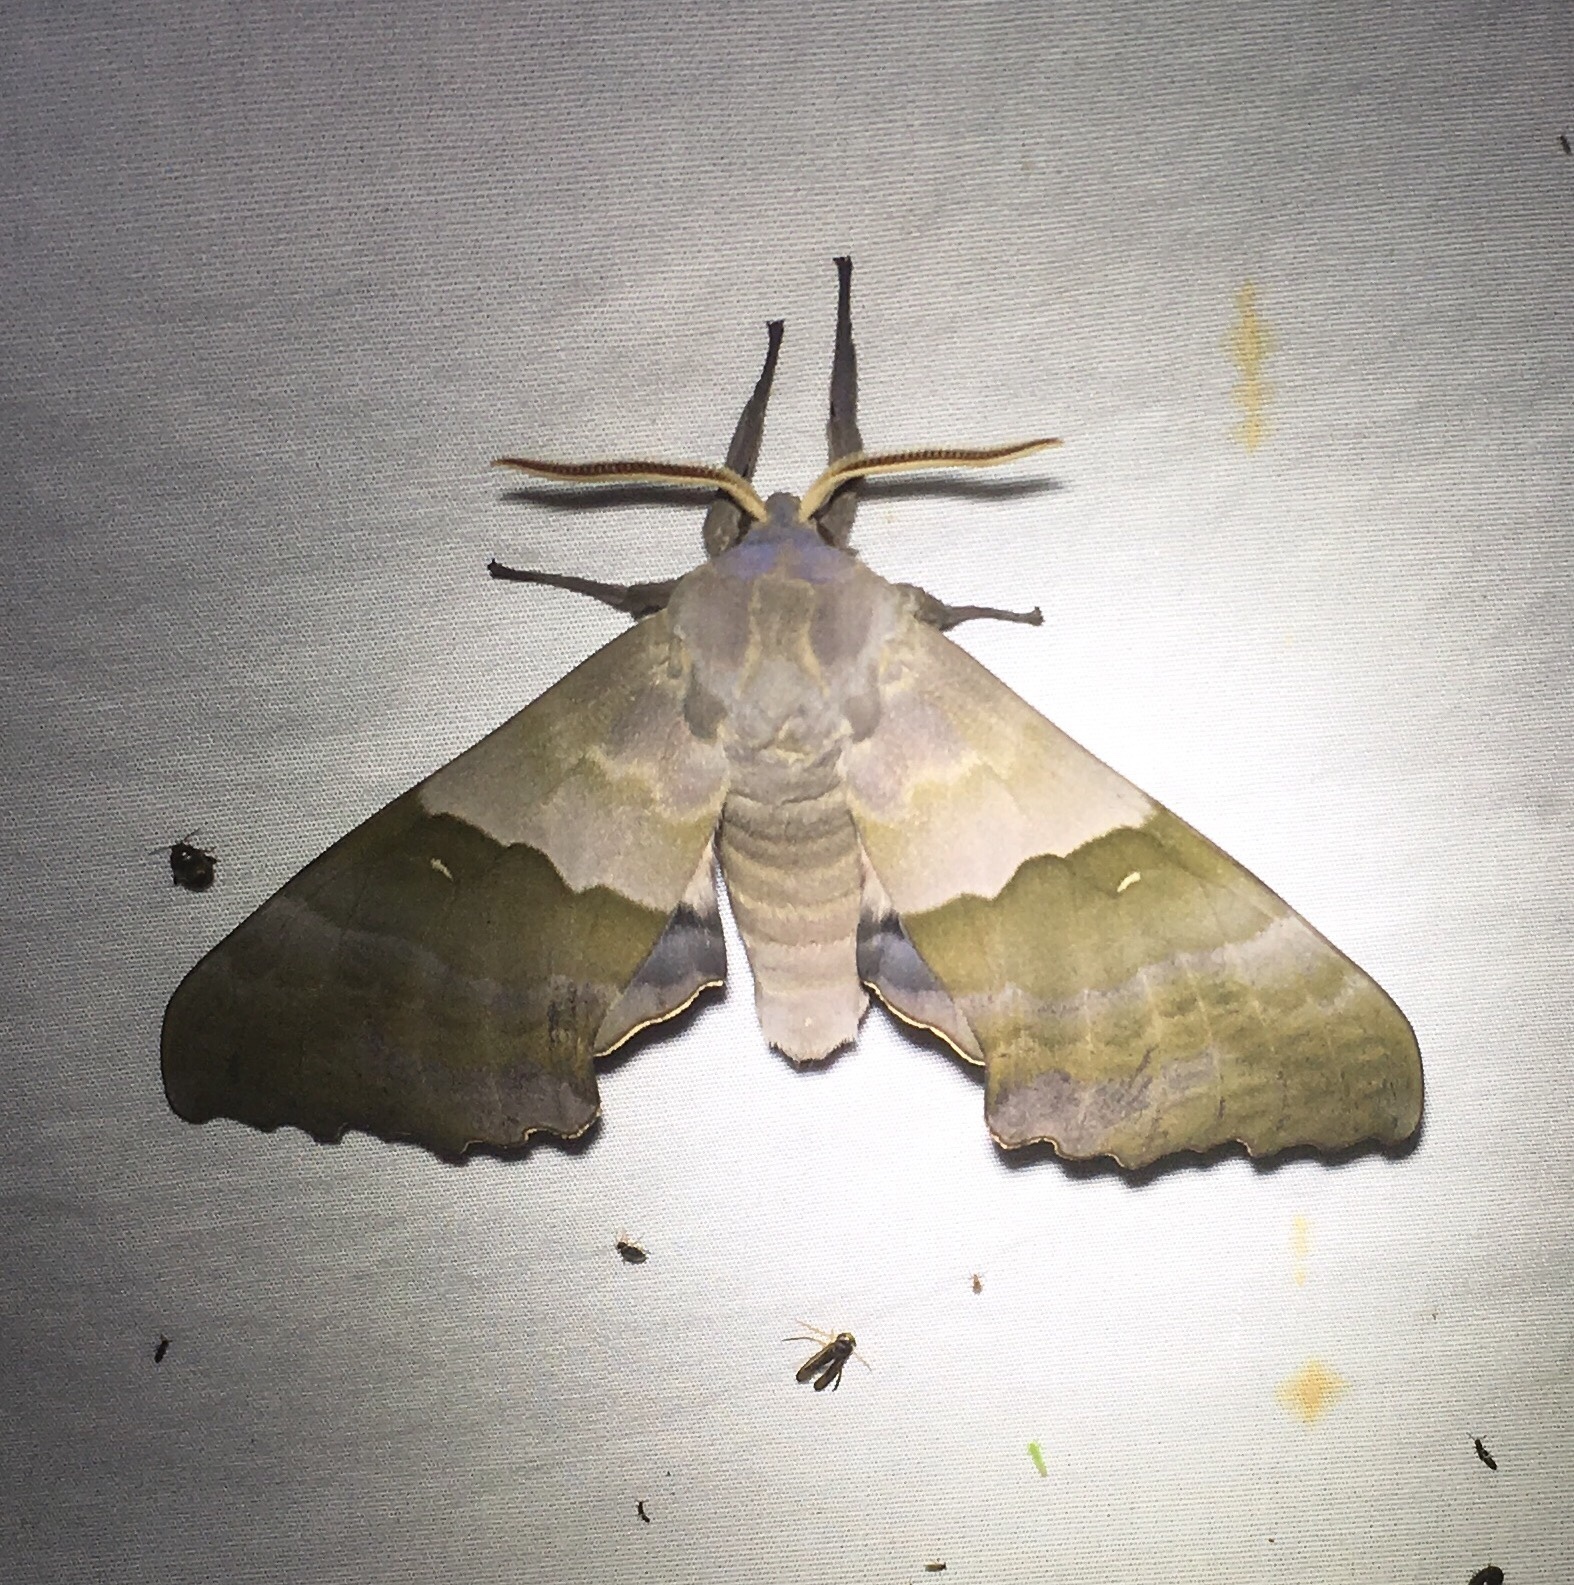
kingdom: Animalia
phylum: Arthropoda
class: Insecta
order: Lepidoptera
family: Sphingidae
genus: Pachysphinx
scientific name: Pachysphinx modesta
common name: Big poplar sphinx
